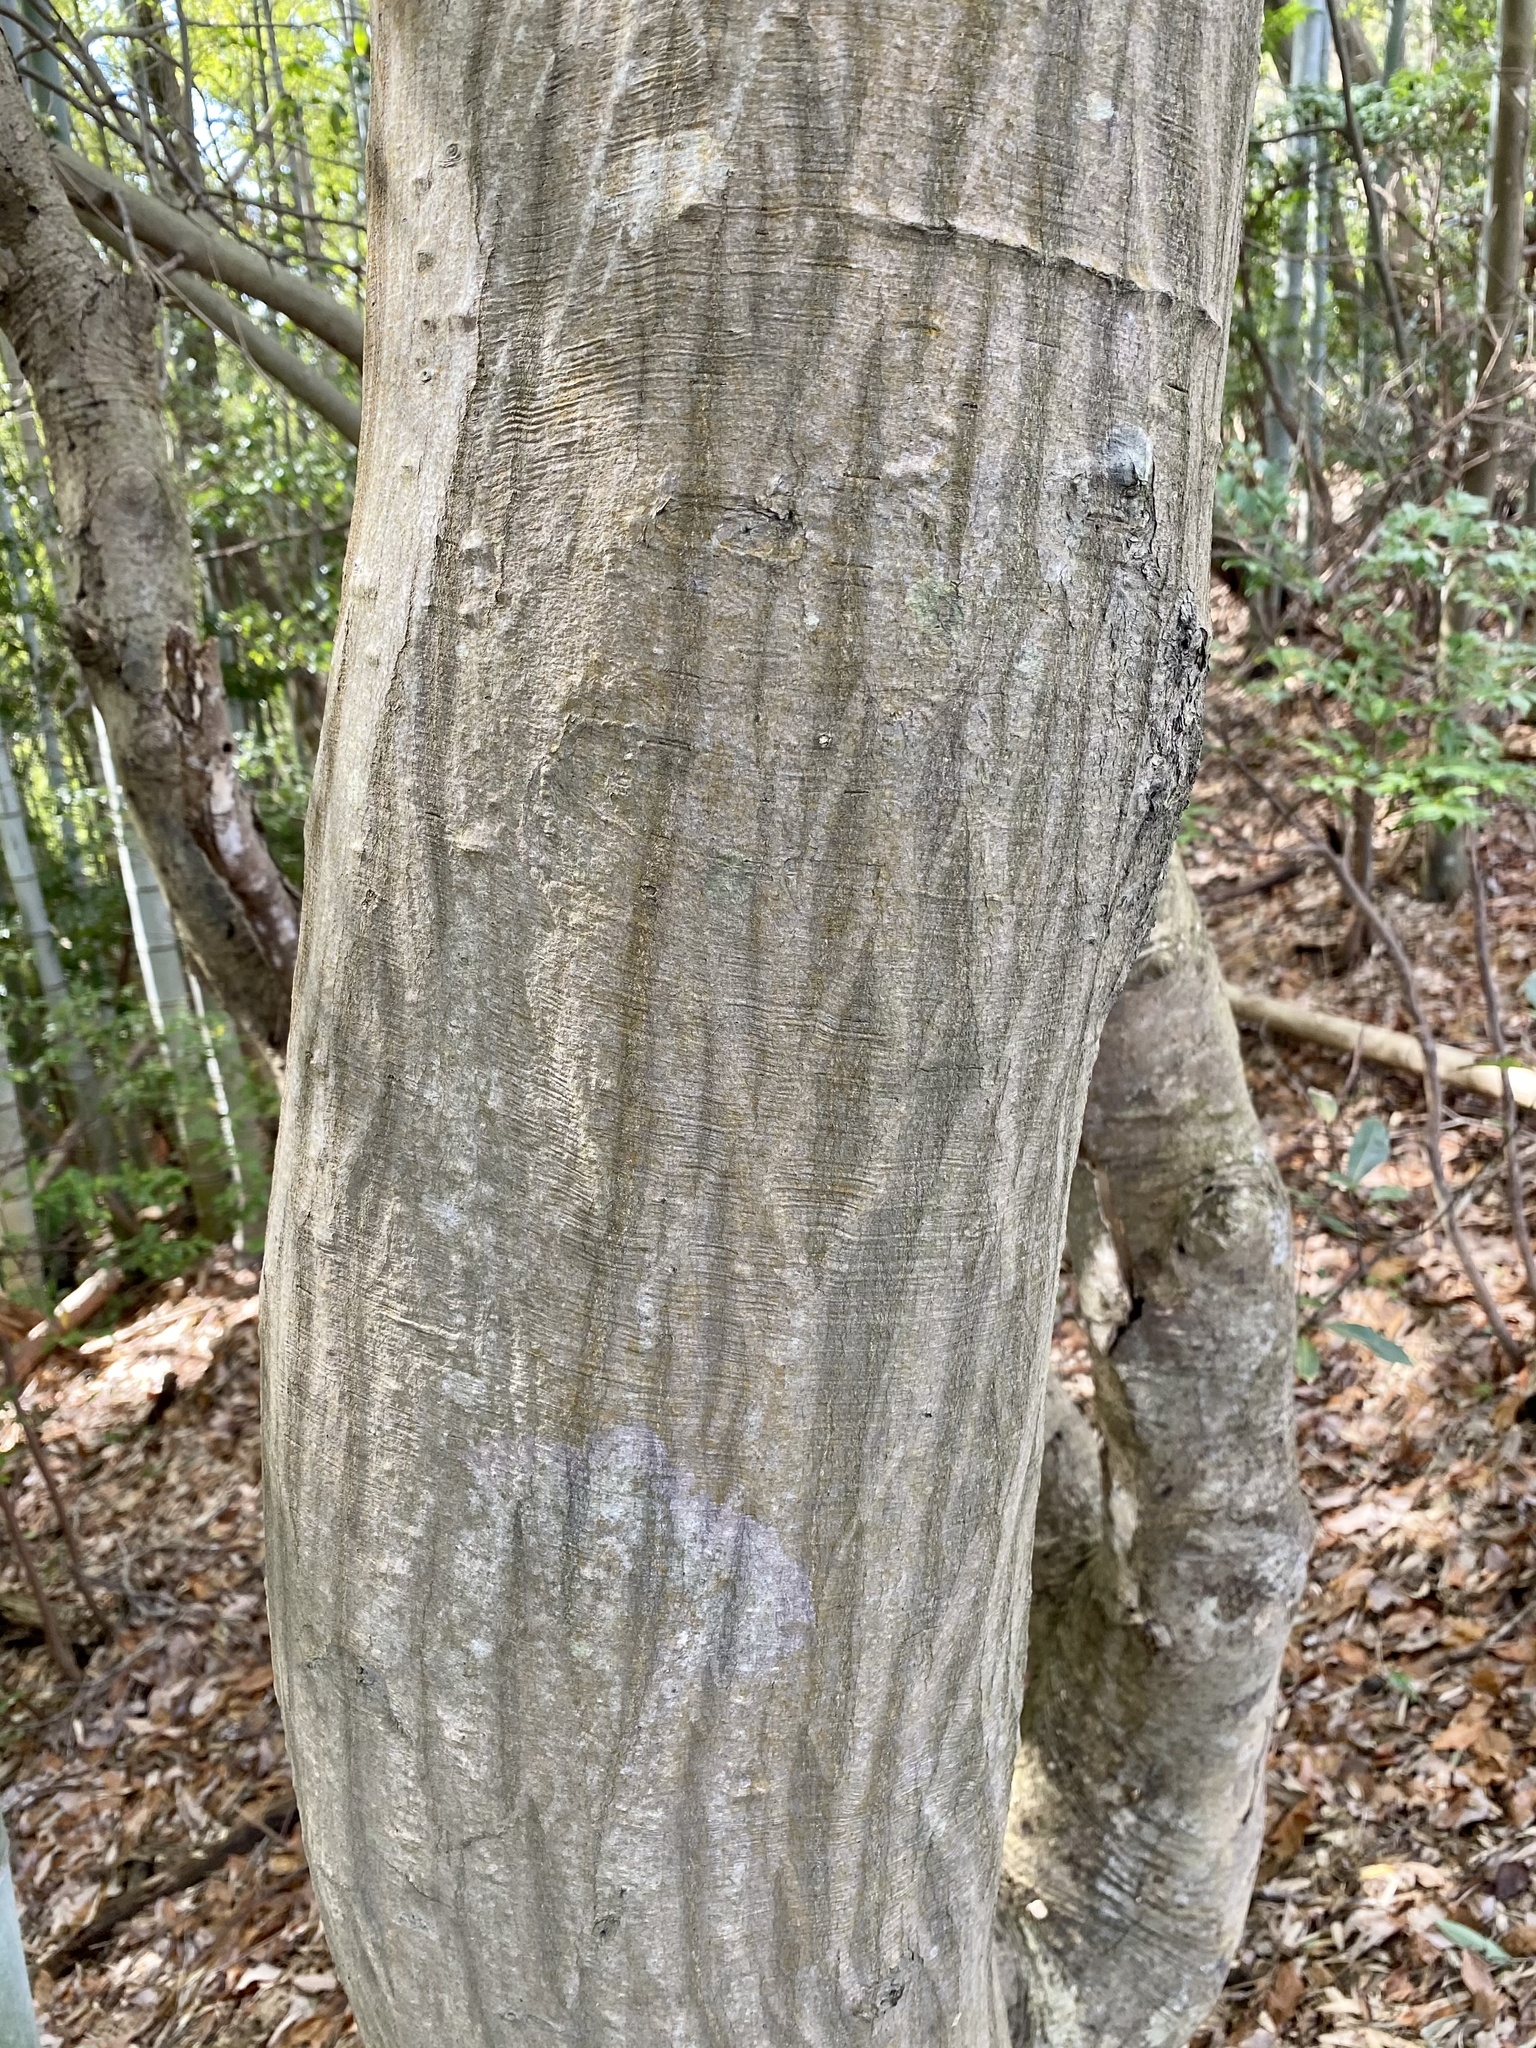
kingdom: Plantae
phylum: Tracheophyta
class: Magnoliopsida
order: Fagales
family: Betulaceae
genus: Carpinus
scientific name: Carpinus laxiflora
